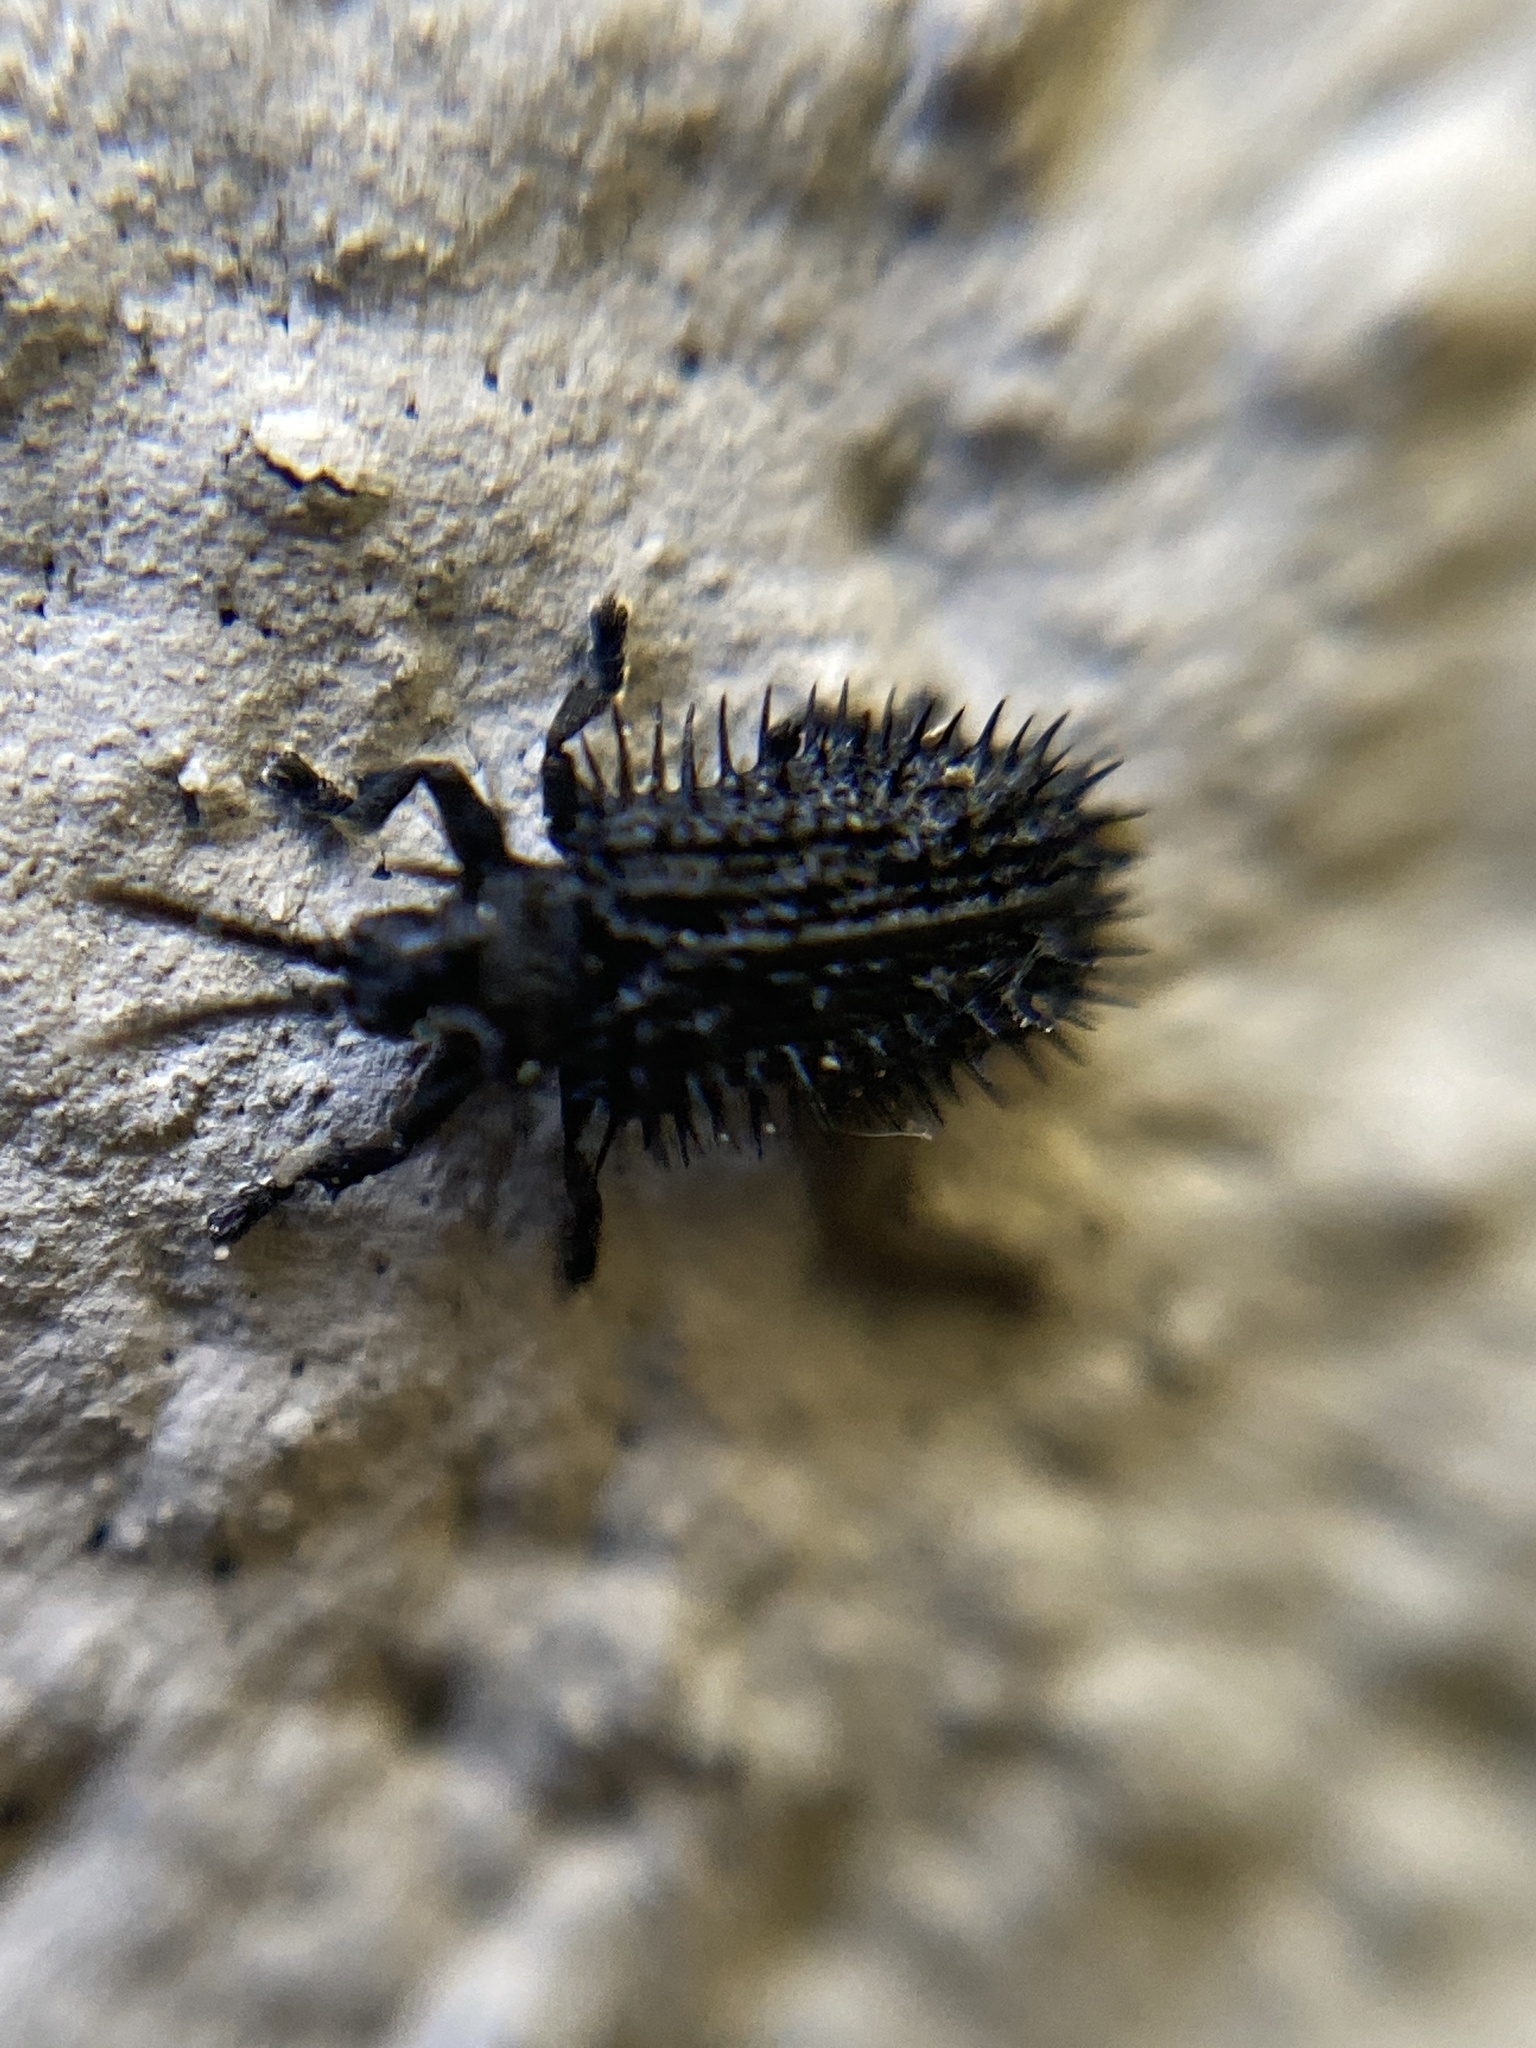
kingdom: Animalia
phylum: Arthropoda
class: Insecta
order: Coleoptera
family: Chrysomelidae
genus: Hispa
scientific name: Hispa atra
